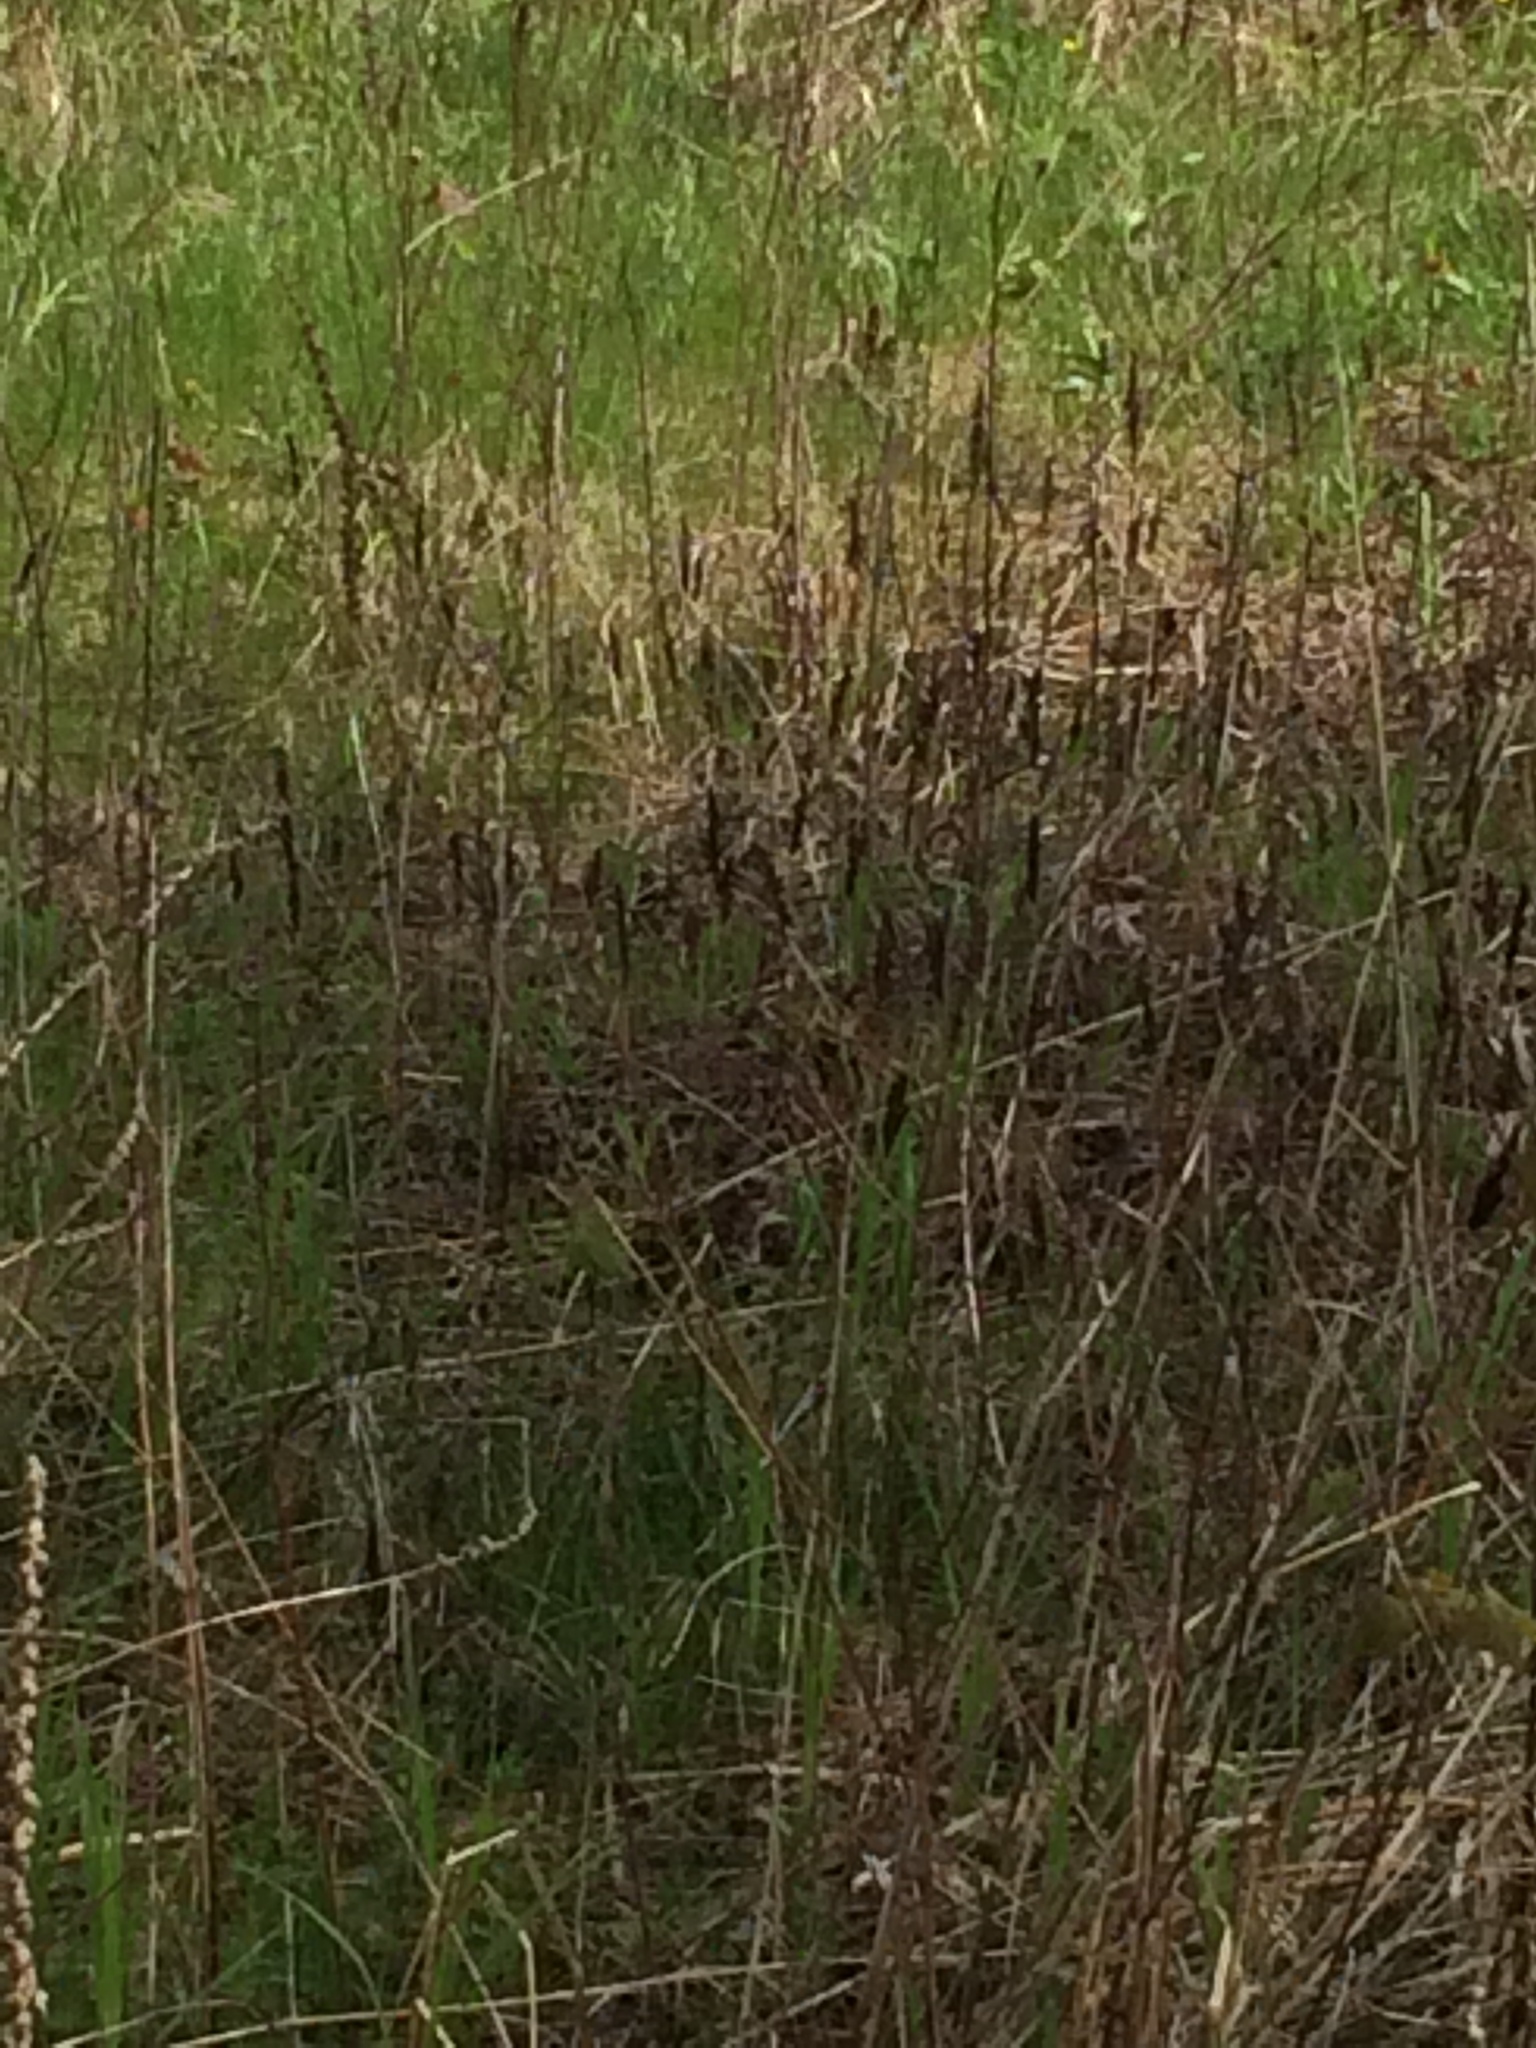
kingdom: Plantae
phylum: Tracheophyta
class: Polypodiopsida
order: Polypodiales
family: Onocleaceae
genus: Onoclea
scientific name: Onoclea sensibilis
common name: Sensitive fern
